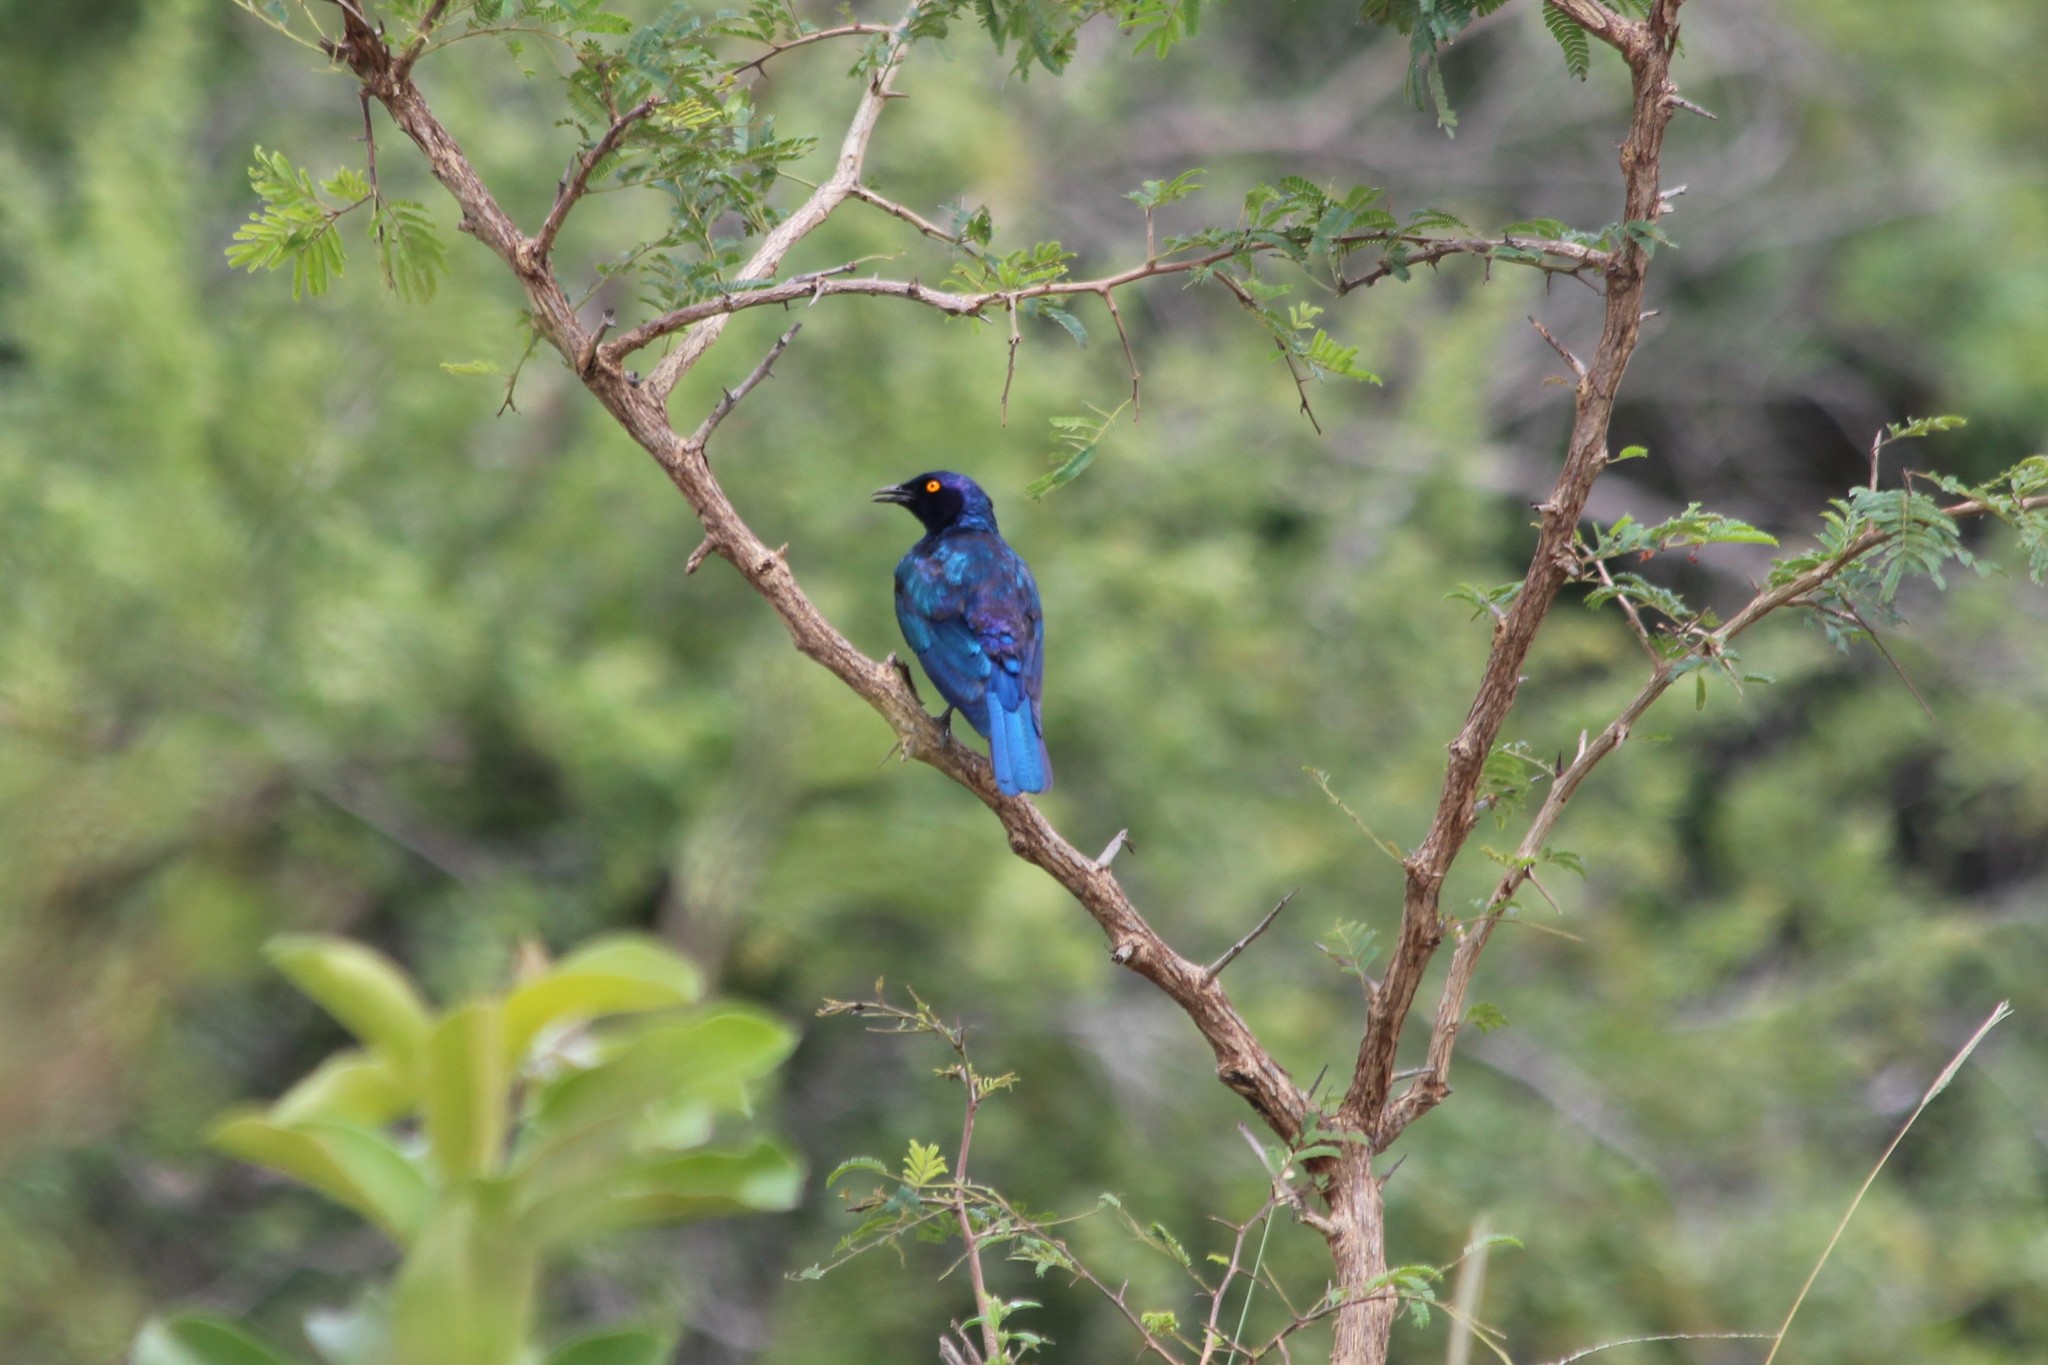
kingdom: Animalia
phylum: Chordata
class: Aves
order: Passeriformes
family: Sturnidae
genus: Lamprotornis
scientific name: Lamprotornis nitens
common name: Cape starling
